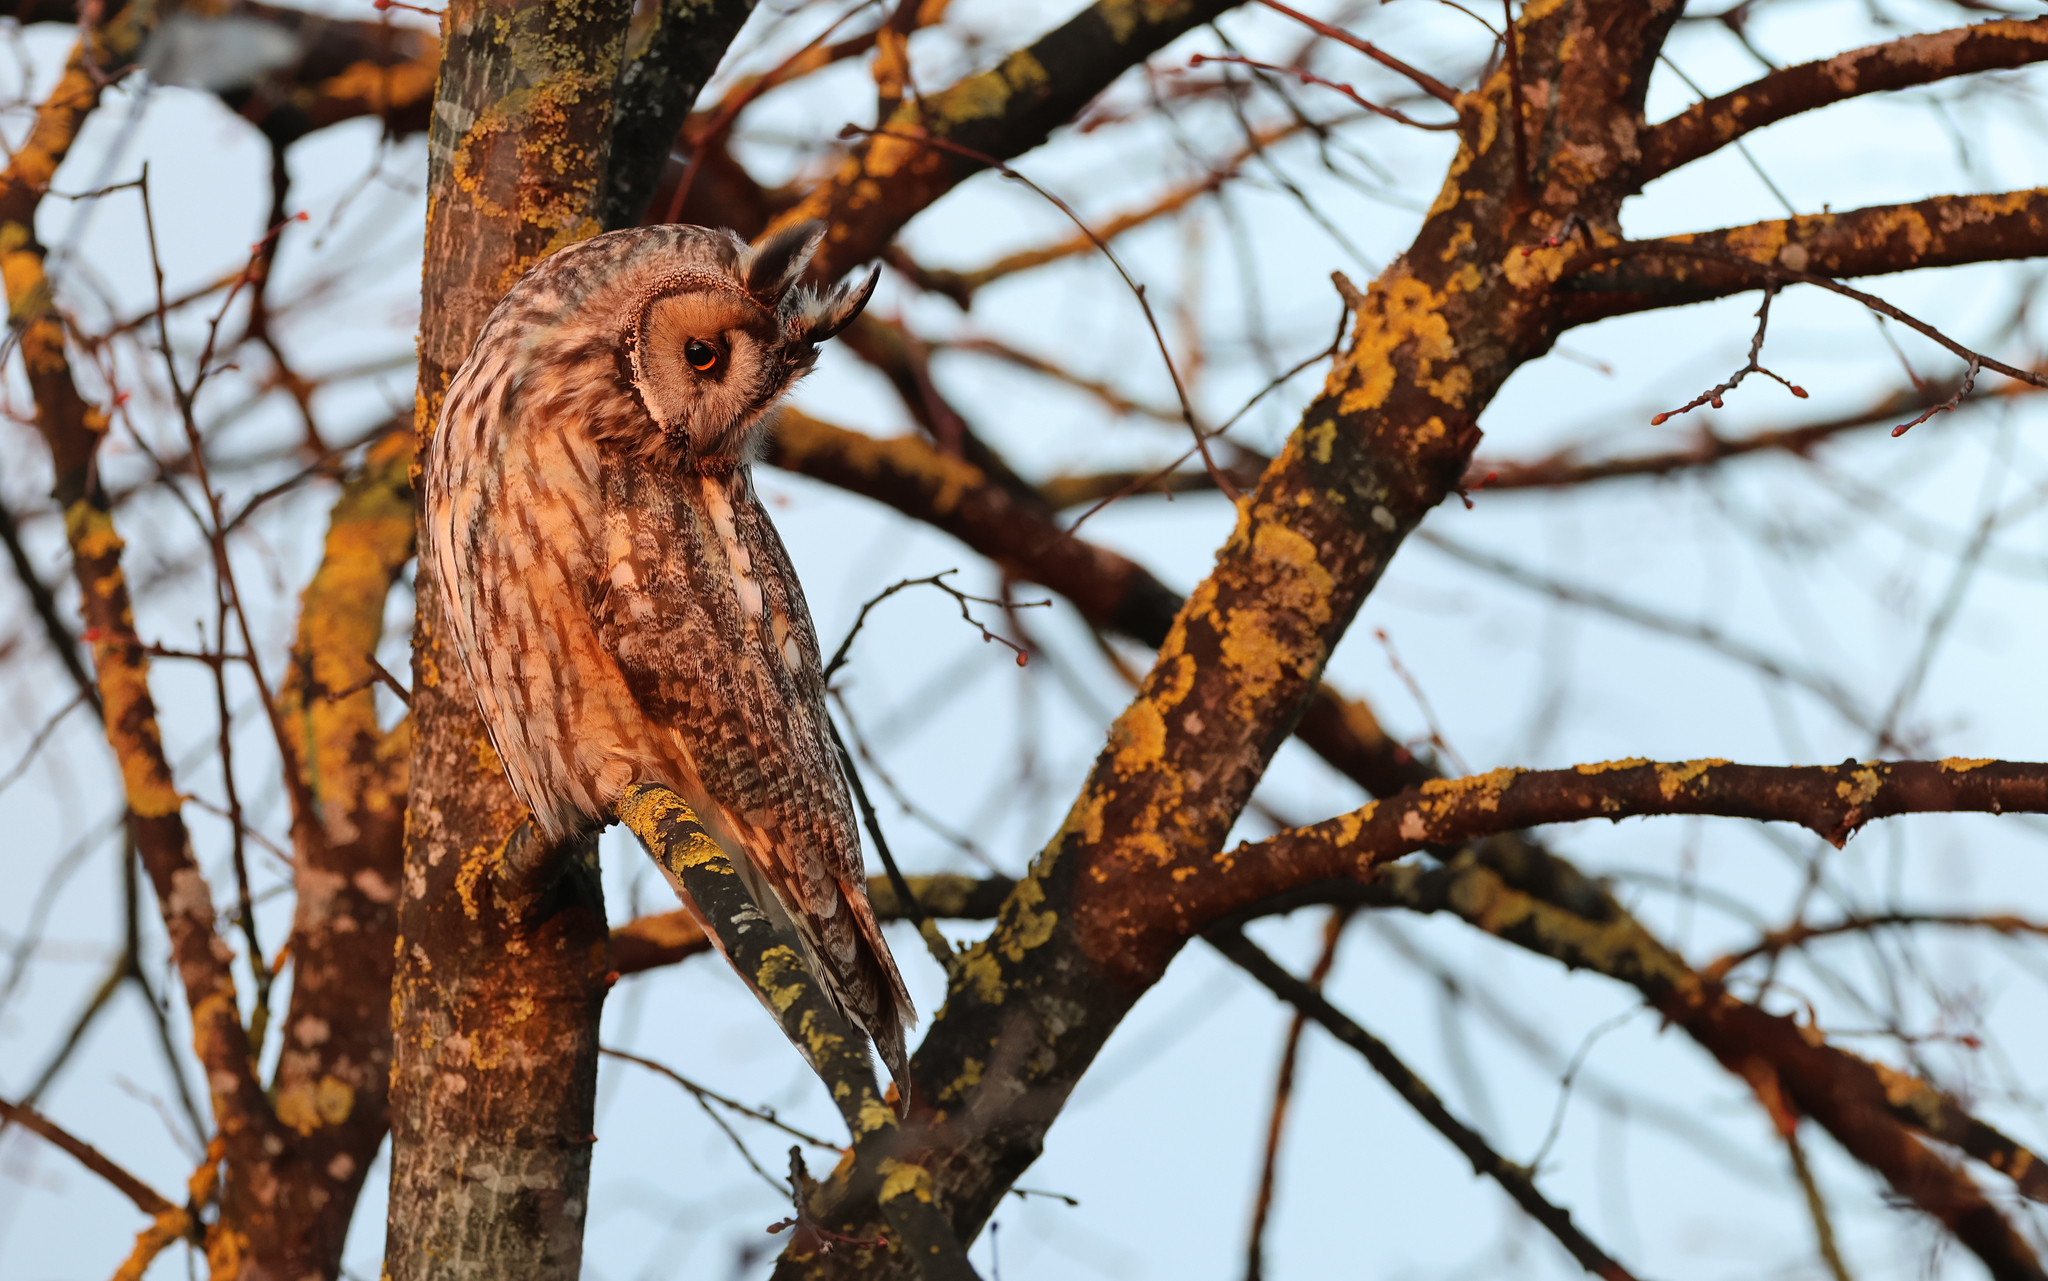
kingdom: Animalia
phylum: Chordata
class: Aves
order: Strigiformes
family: Strigidae
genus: Asio
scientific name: Asio otus
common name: Long-eared owl
